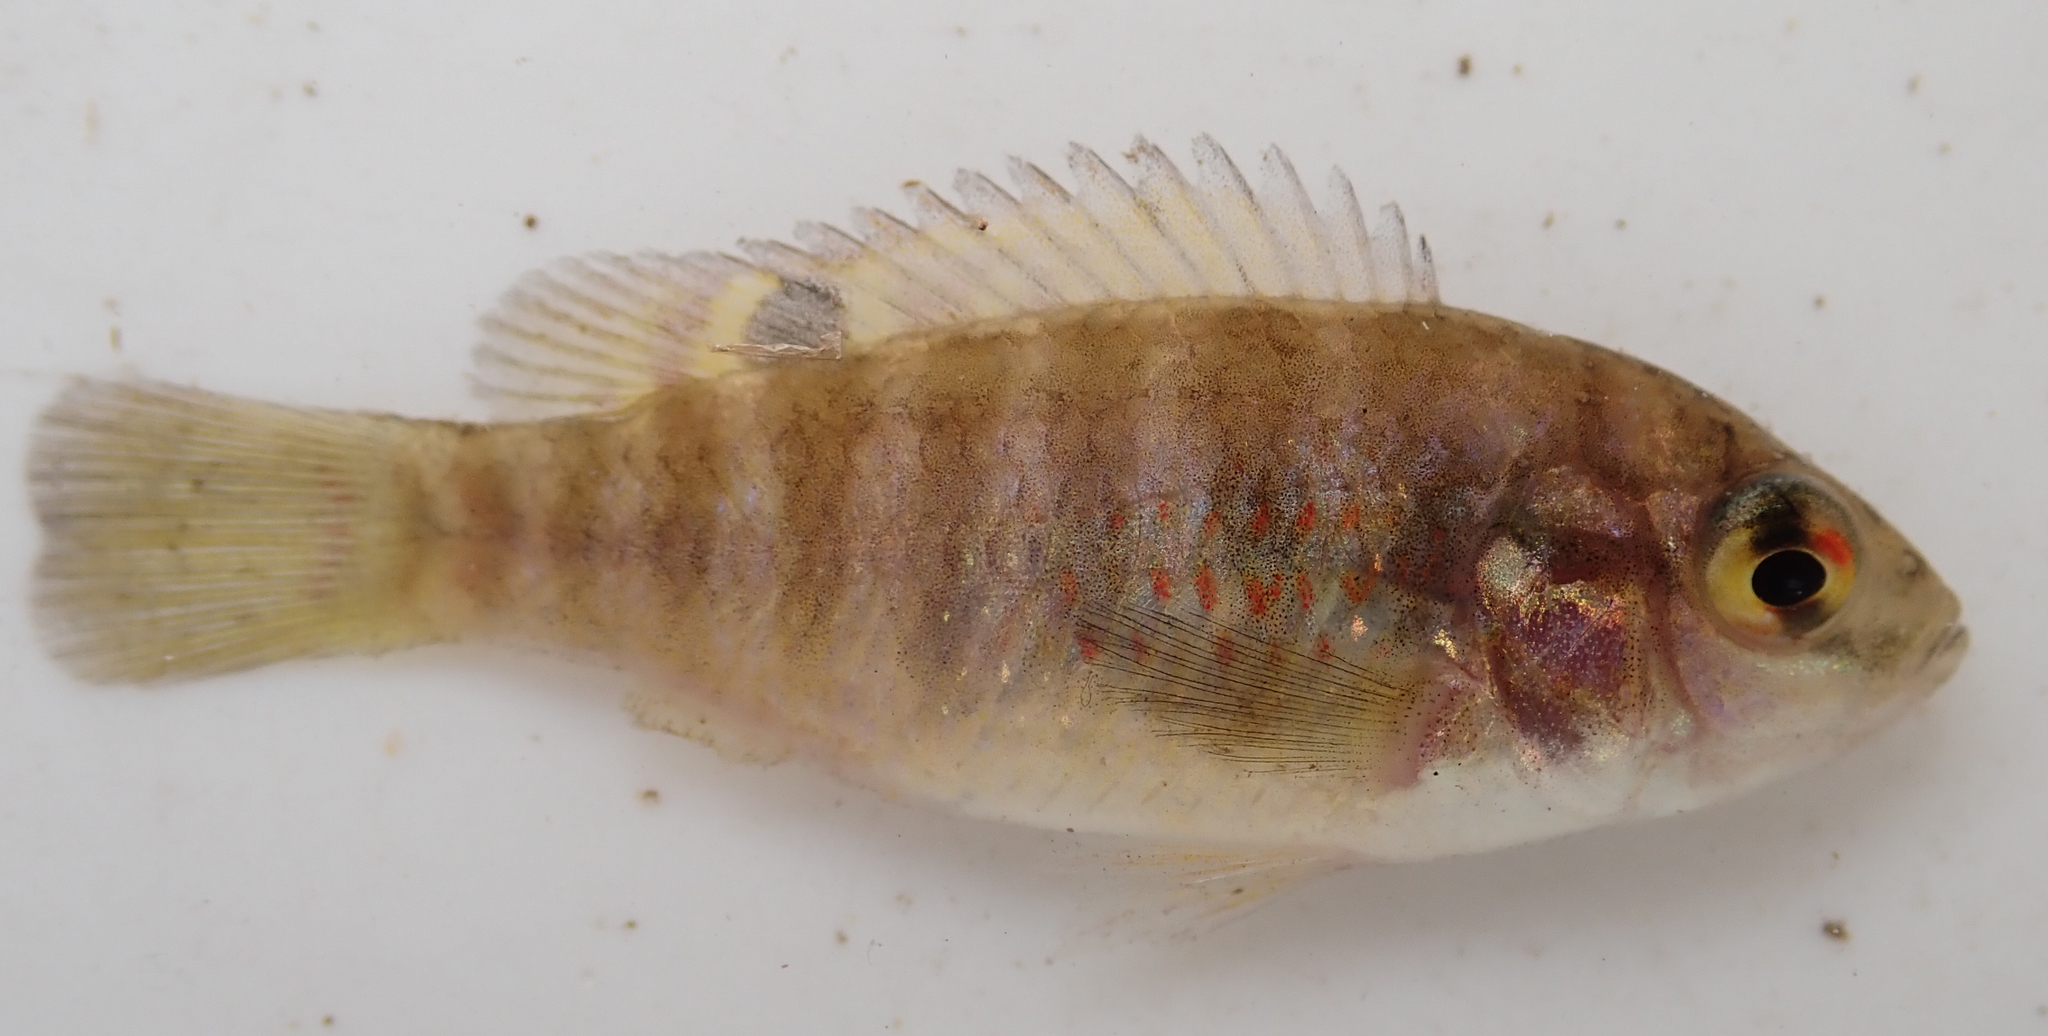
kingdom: Animalia
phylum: Chordata
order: Perciformes
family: Cichlidae
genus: Tilapia
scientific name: Tilapia sparrmanii
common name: Banded tilapia
